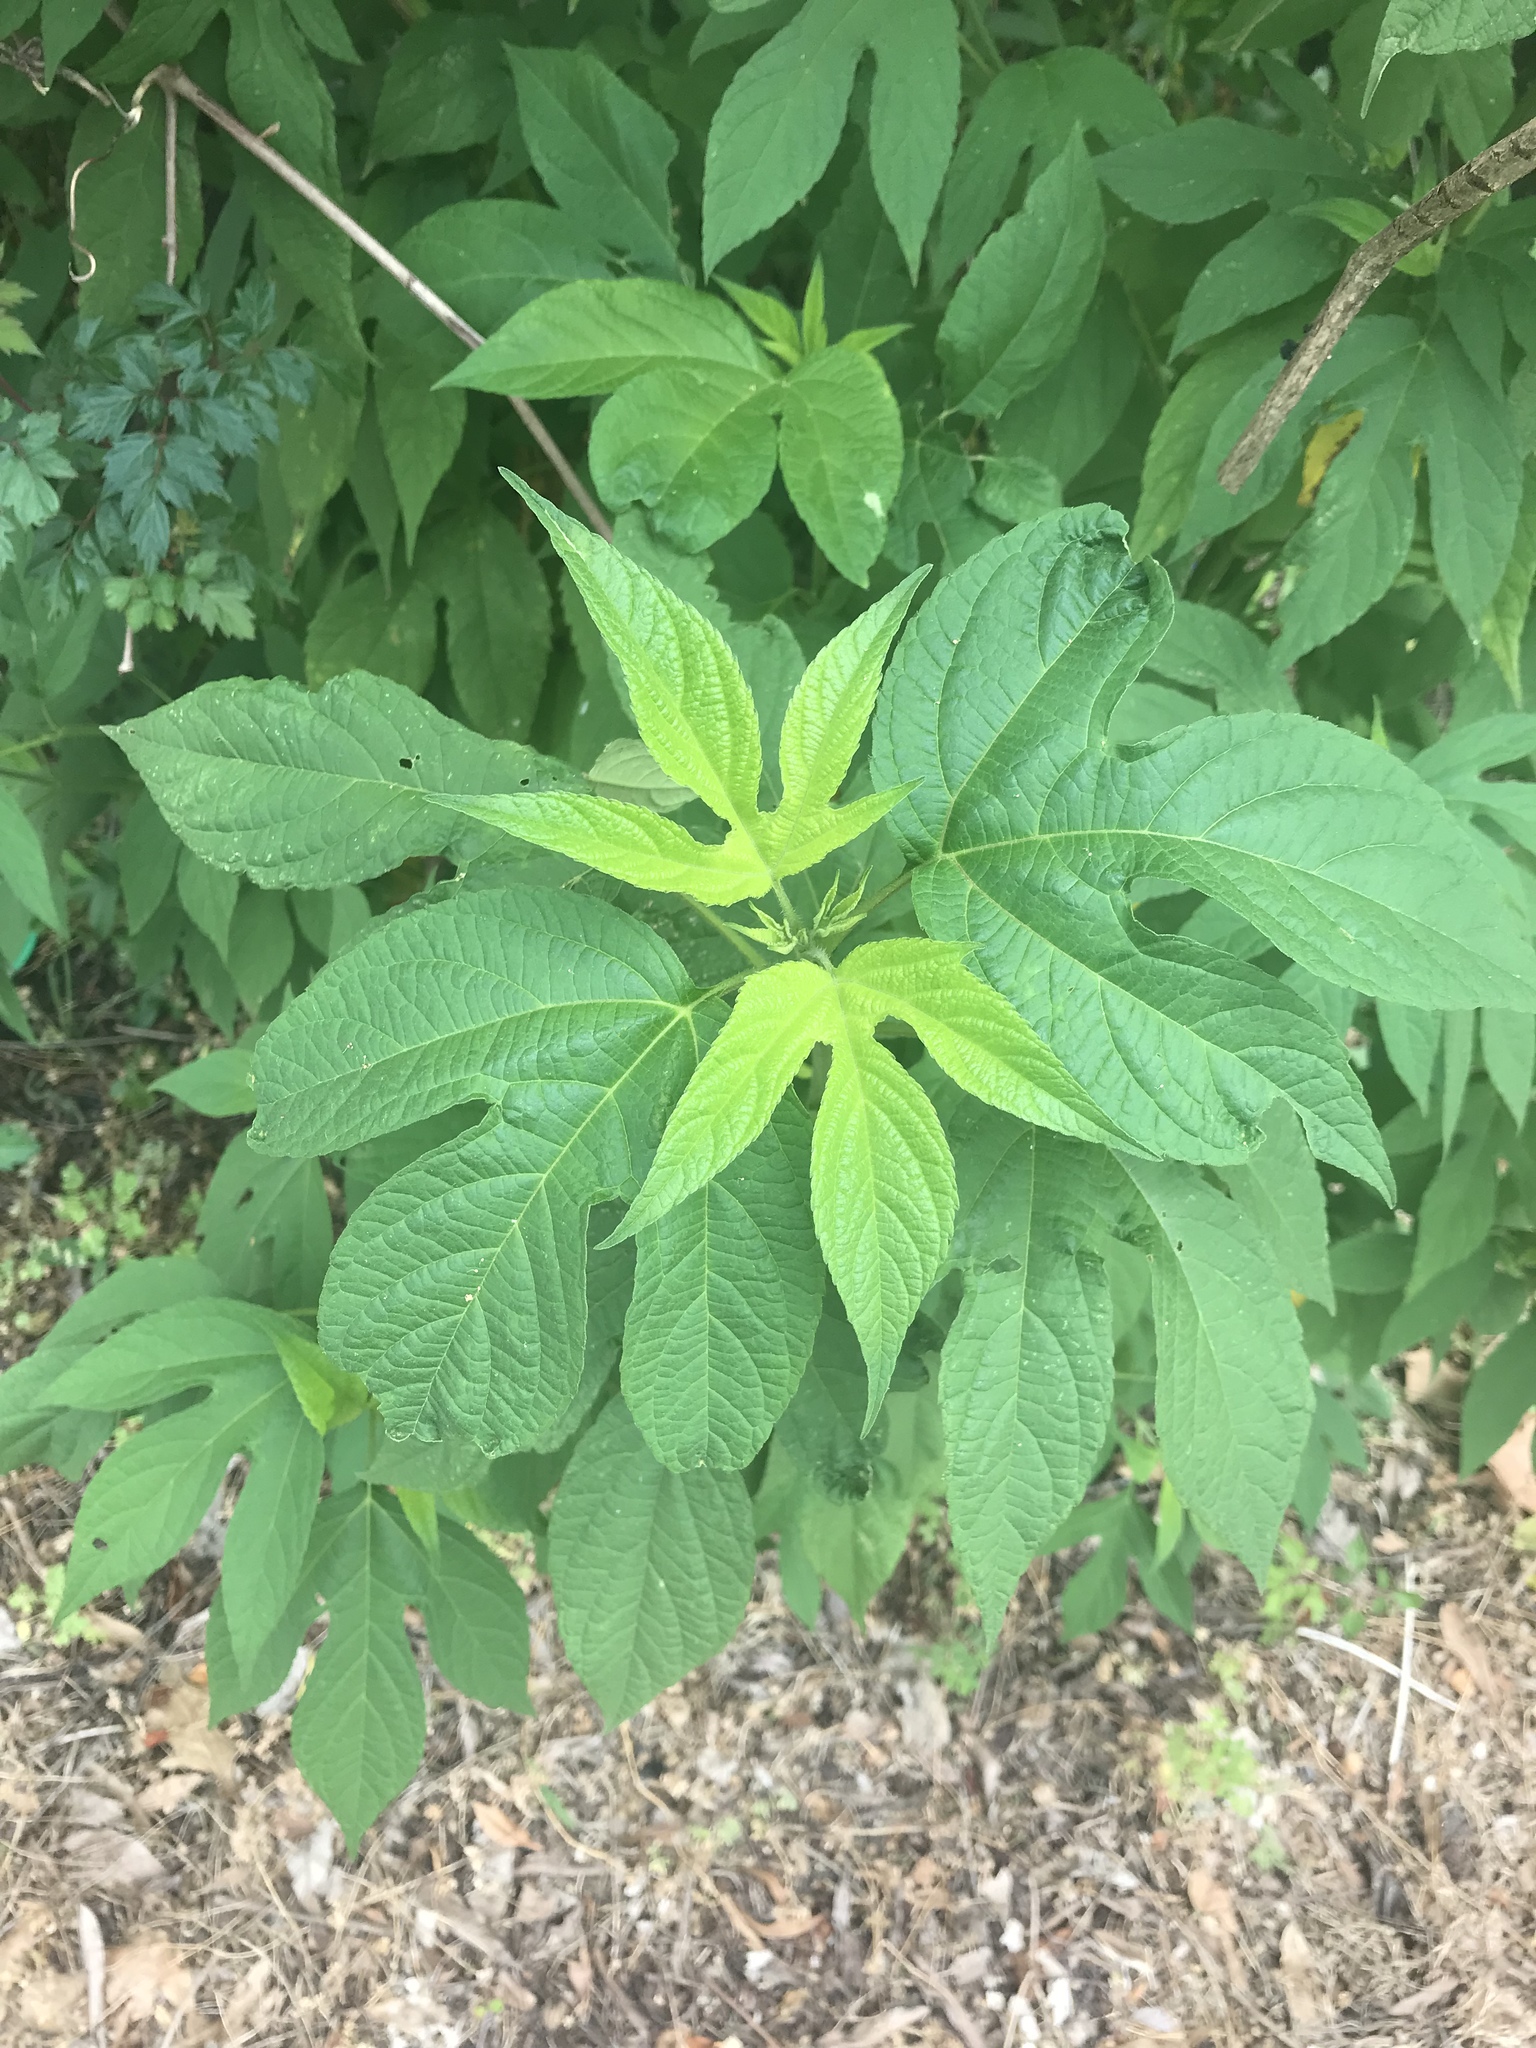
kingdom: Plantae
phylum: Tracheophyta
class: Magnoliopsida
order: Asterales
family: Asteraceae
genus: Ambrosia
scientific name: Ambrosia trifida
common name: Giant ragweed
